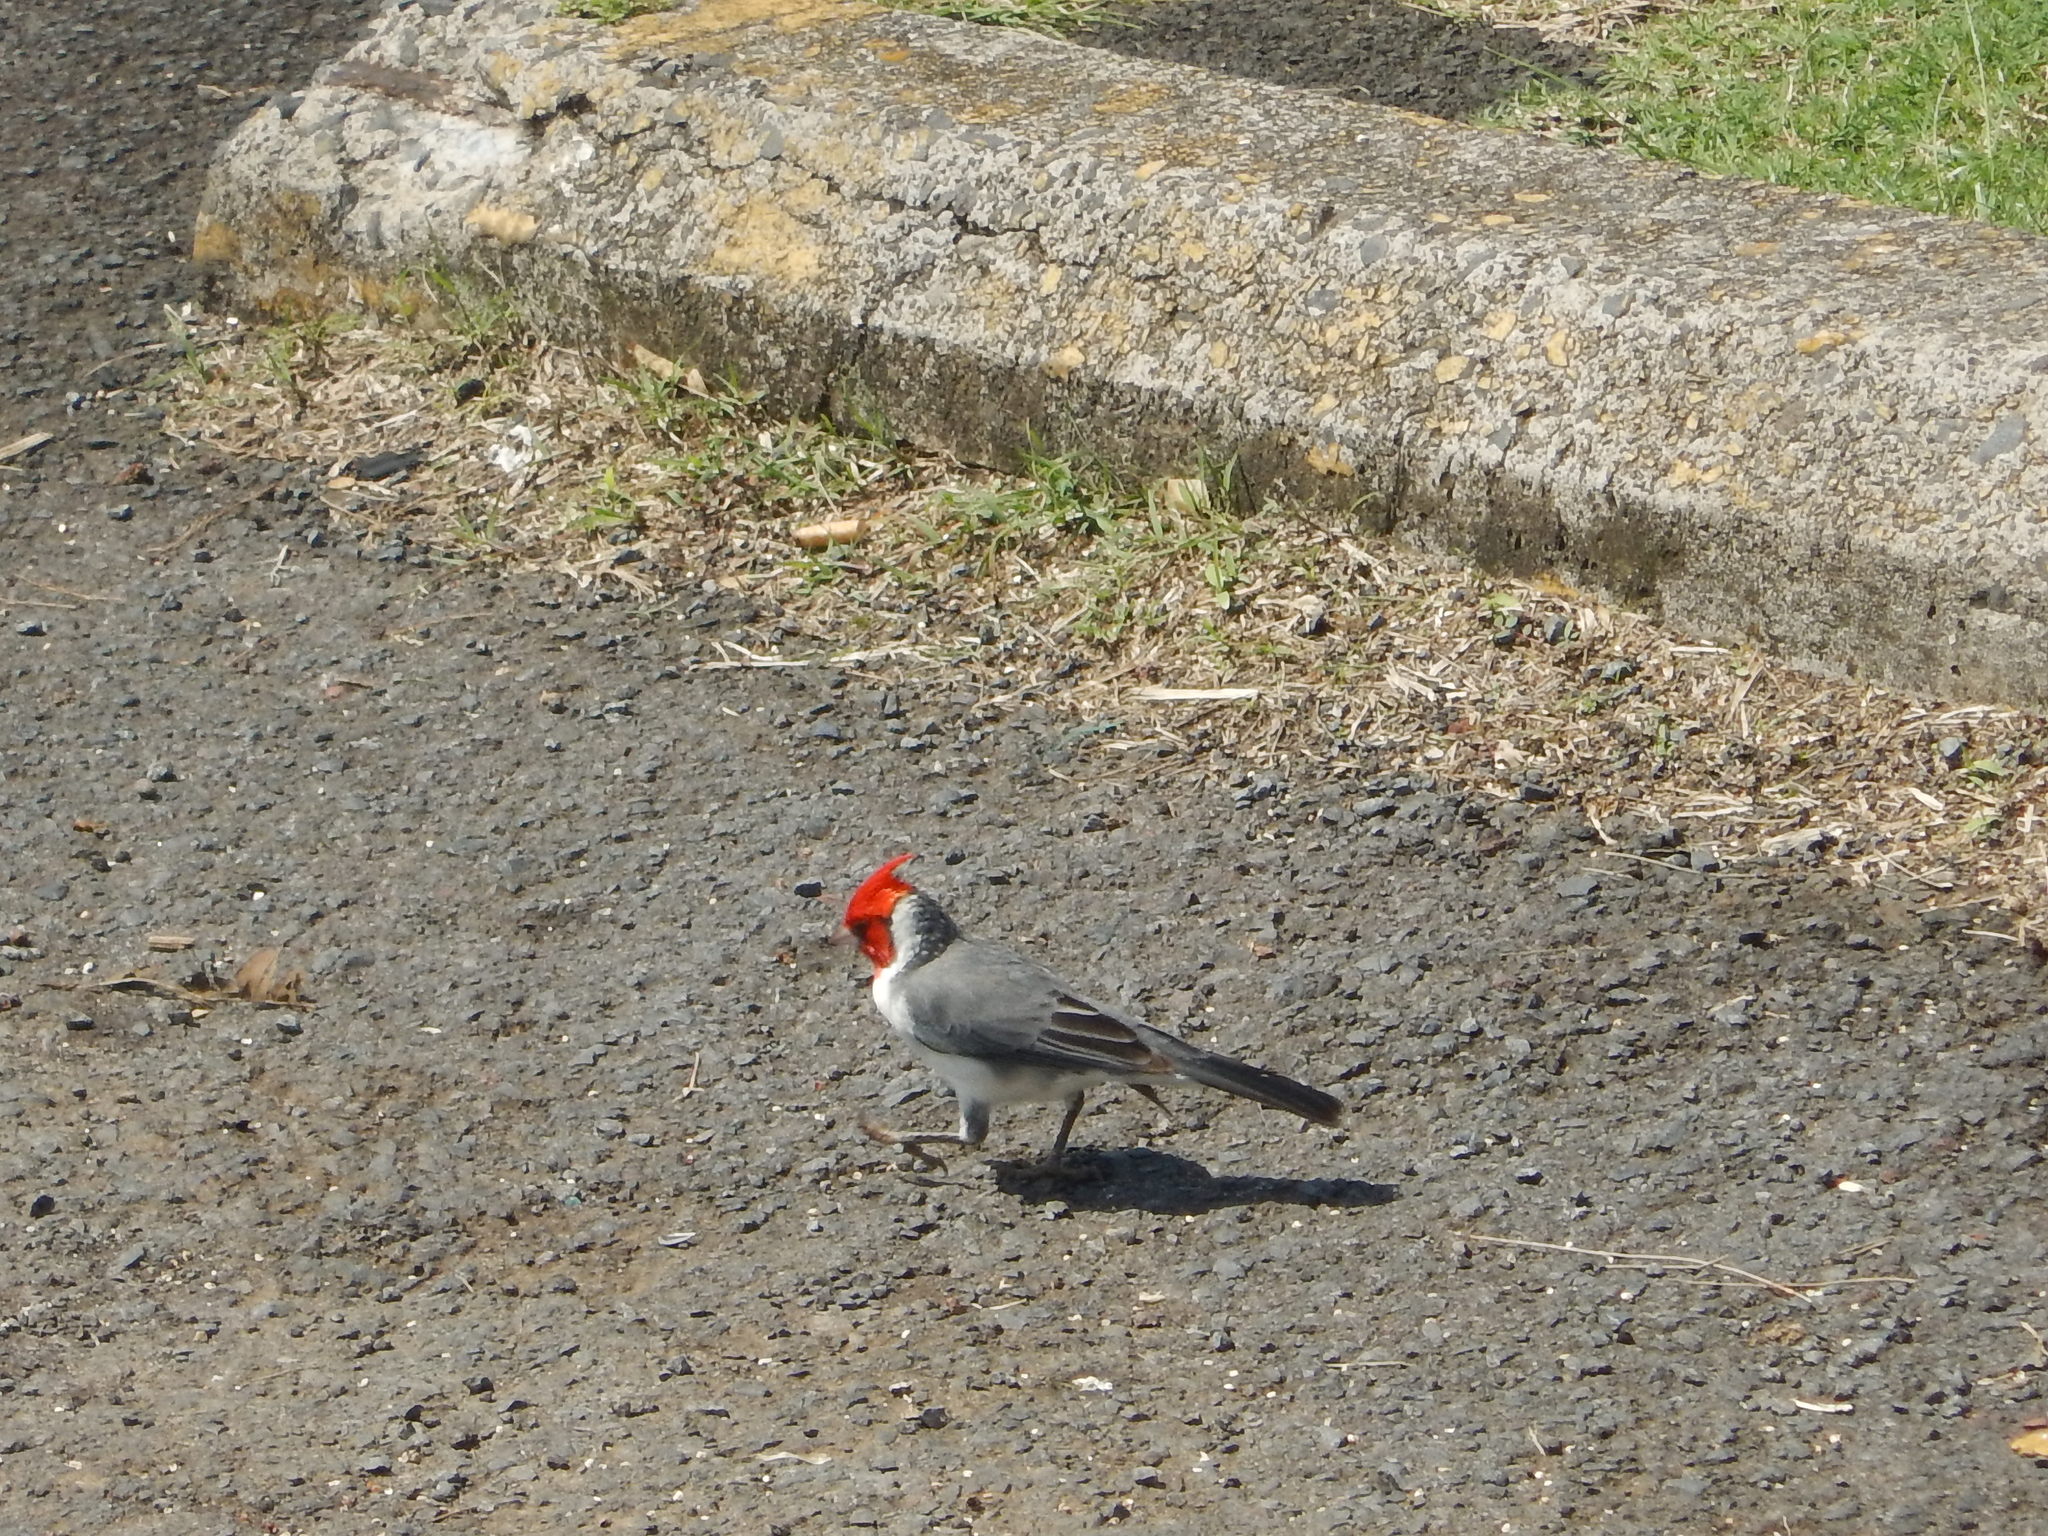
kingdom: Animalia
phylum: Chordata
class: Aves
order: Passeriformes
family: Thraupidae
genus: Paroaria
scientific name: Paroaria coronata
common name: Red-crested cardinal
